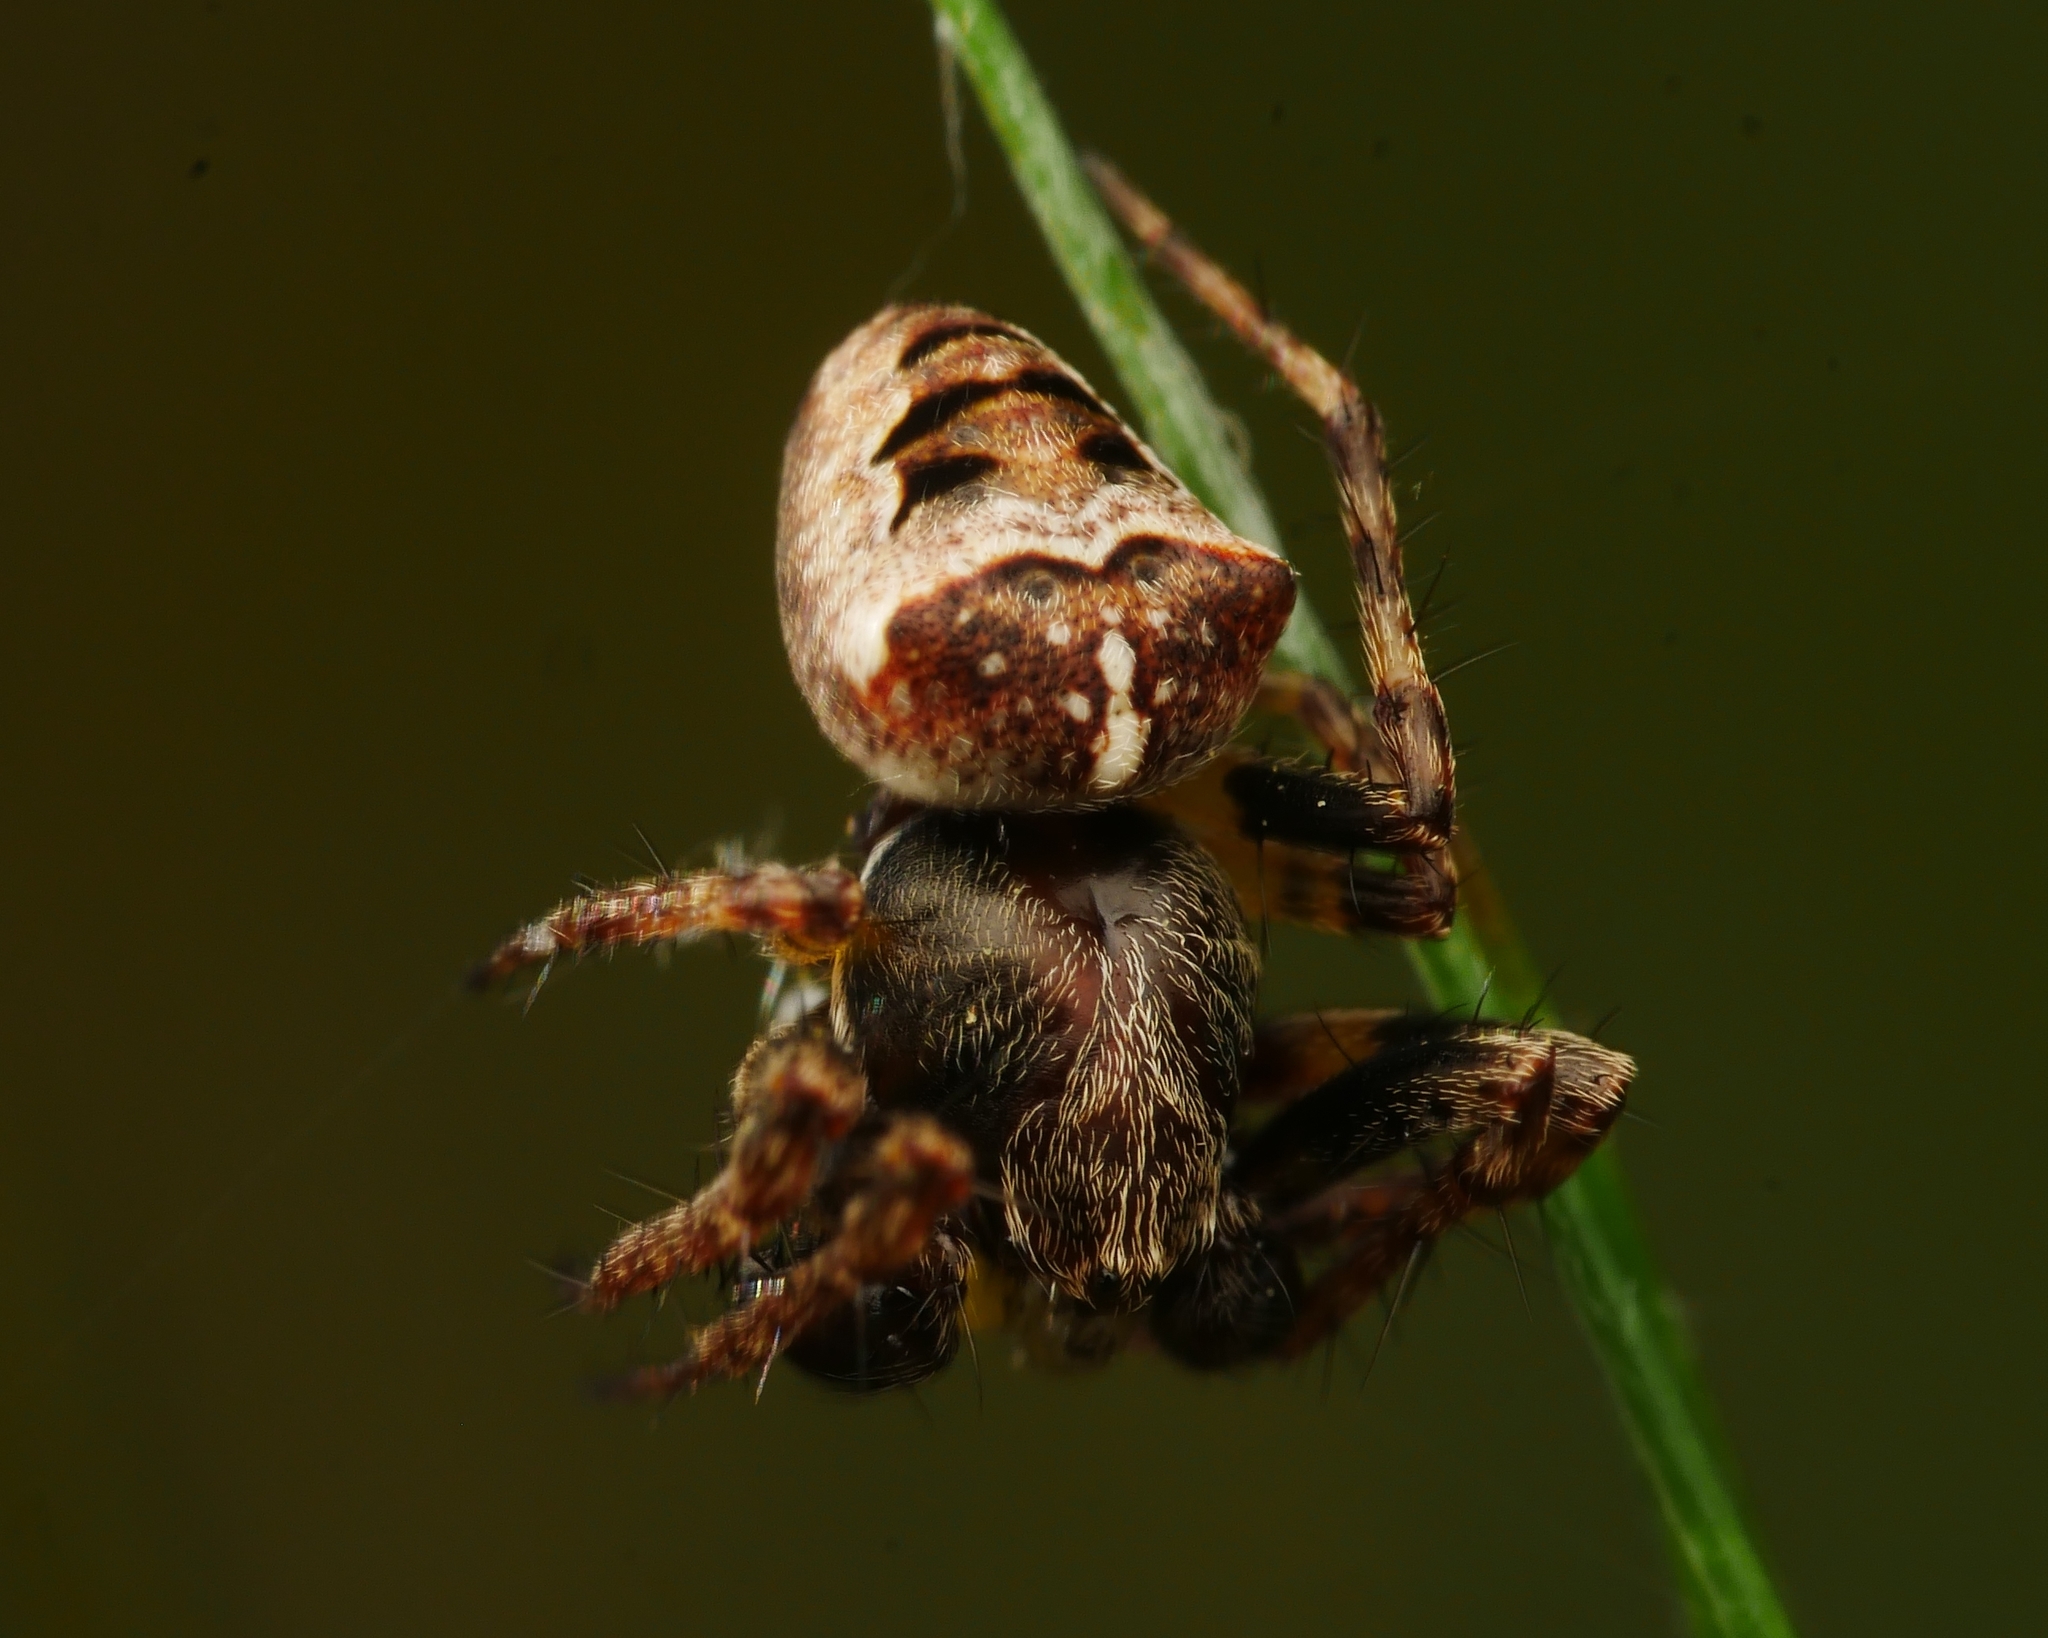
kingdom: Animalia
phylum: Arthropoda
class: Arachnida
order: Araneae
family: Araneidae
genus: Gibbaranea
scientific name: Gibbaranea bituberculata
